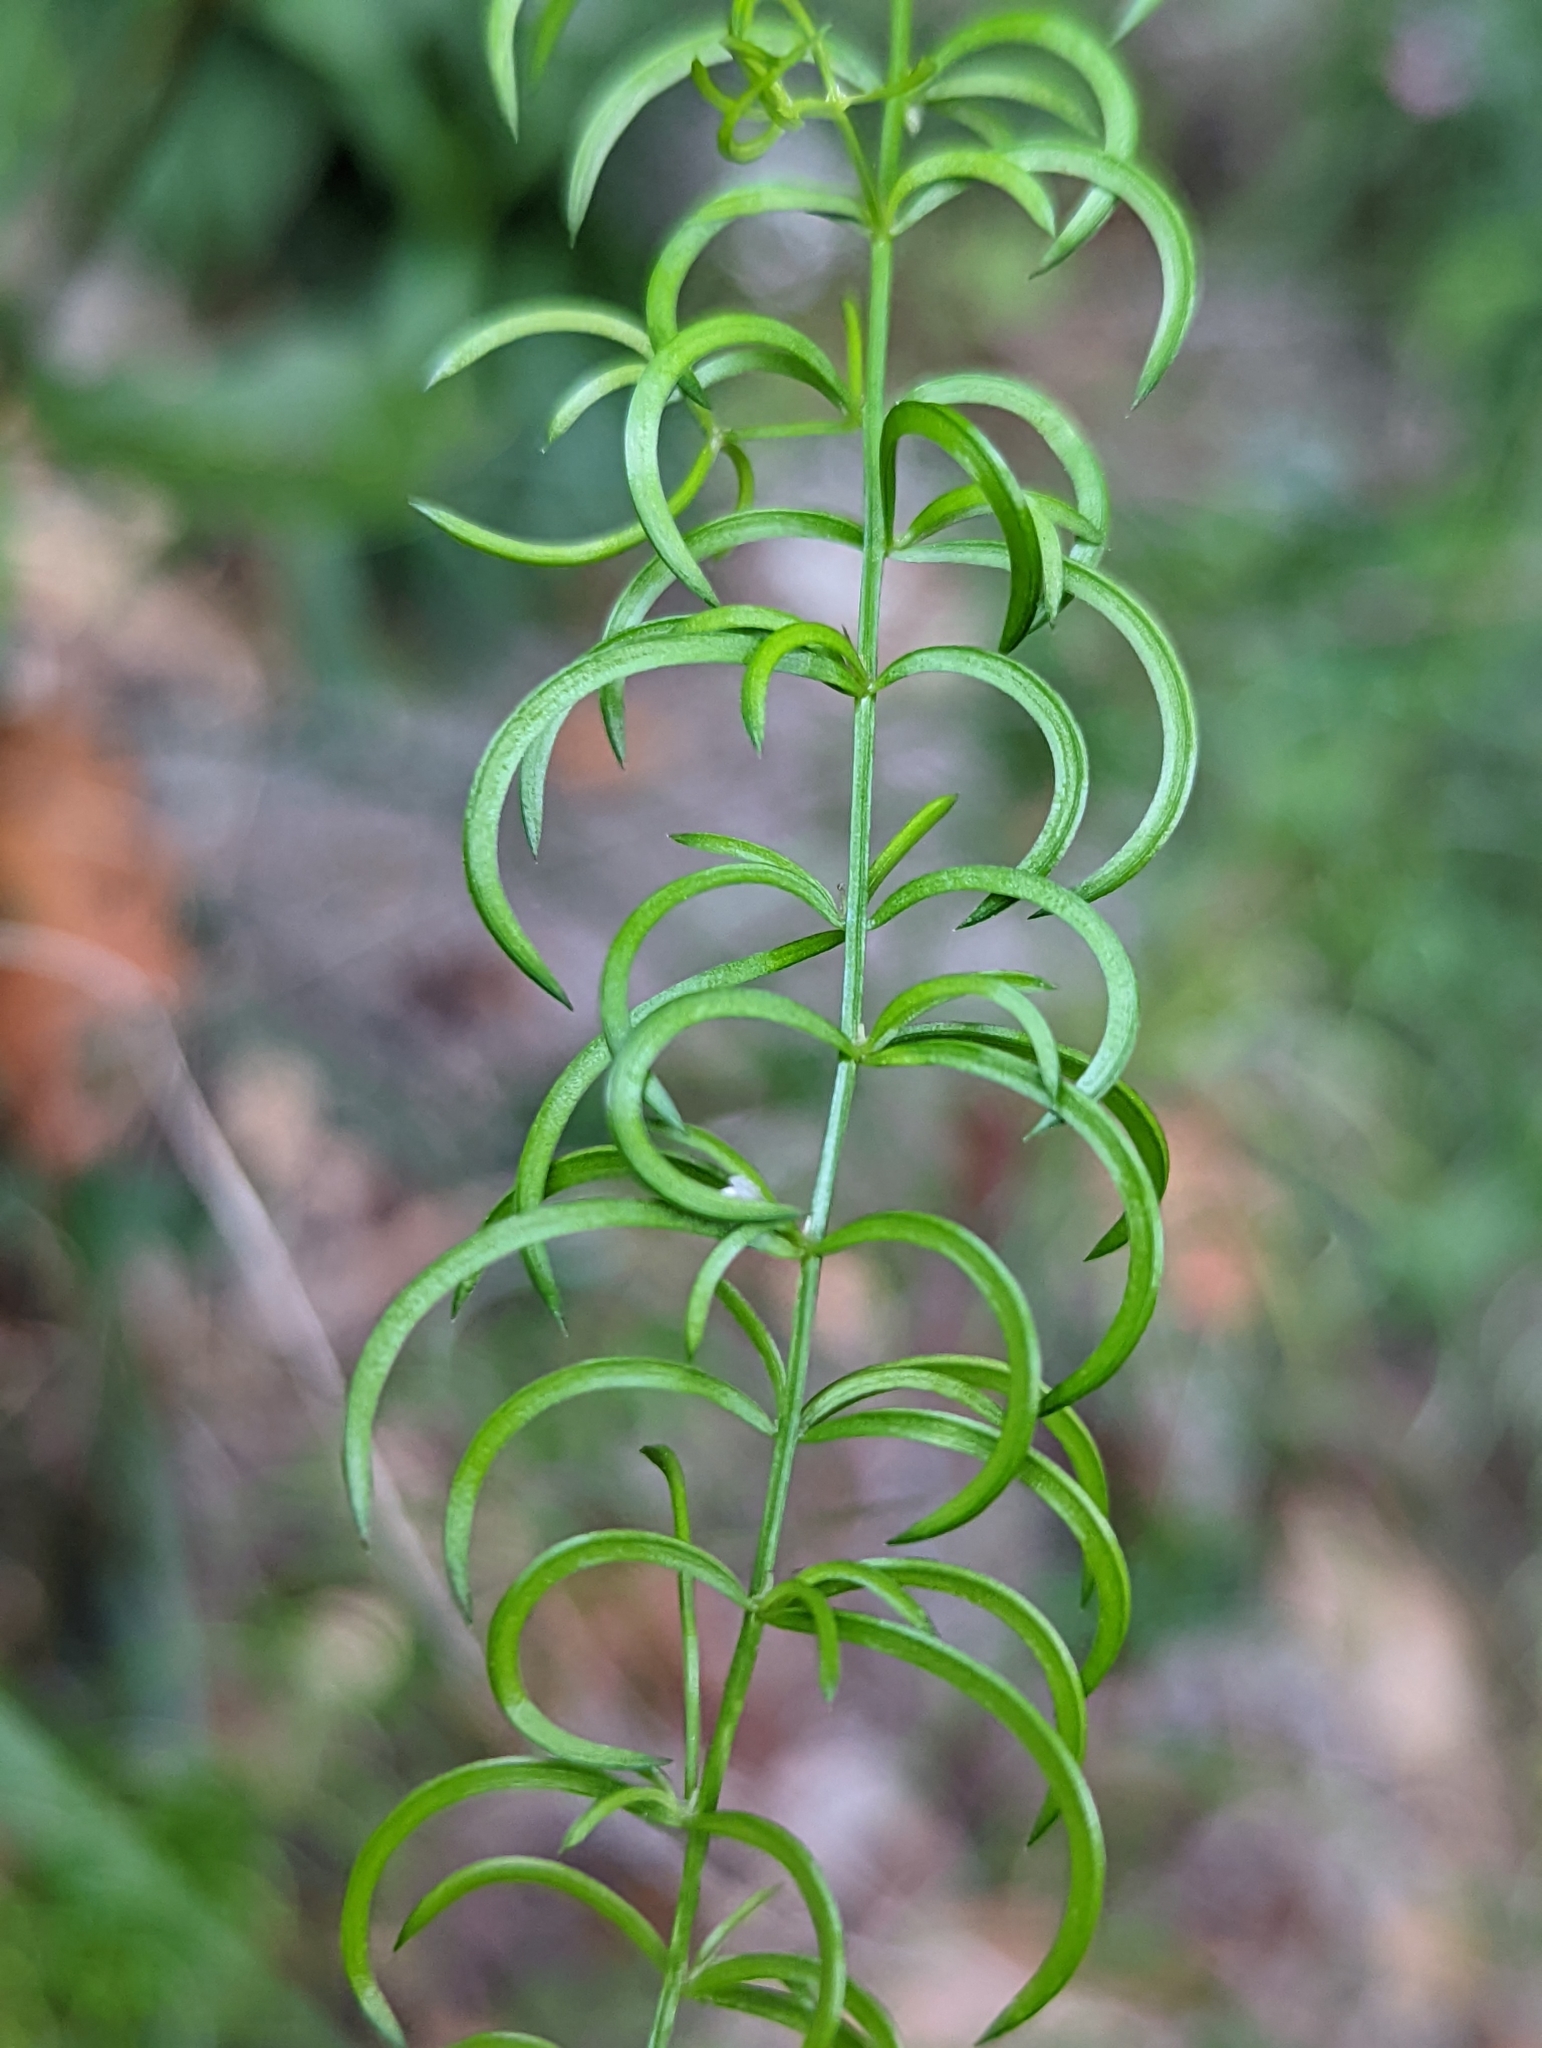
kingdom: Plantae
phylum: Tracheophyta
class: Liliopsida
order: Asparagales
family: Asparagaceae
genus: Asparagus
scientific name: Asparagus cochinchinensis
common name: Chinese asparagus
